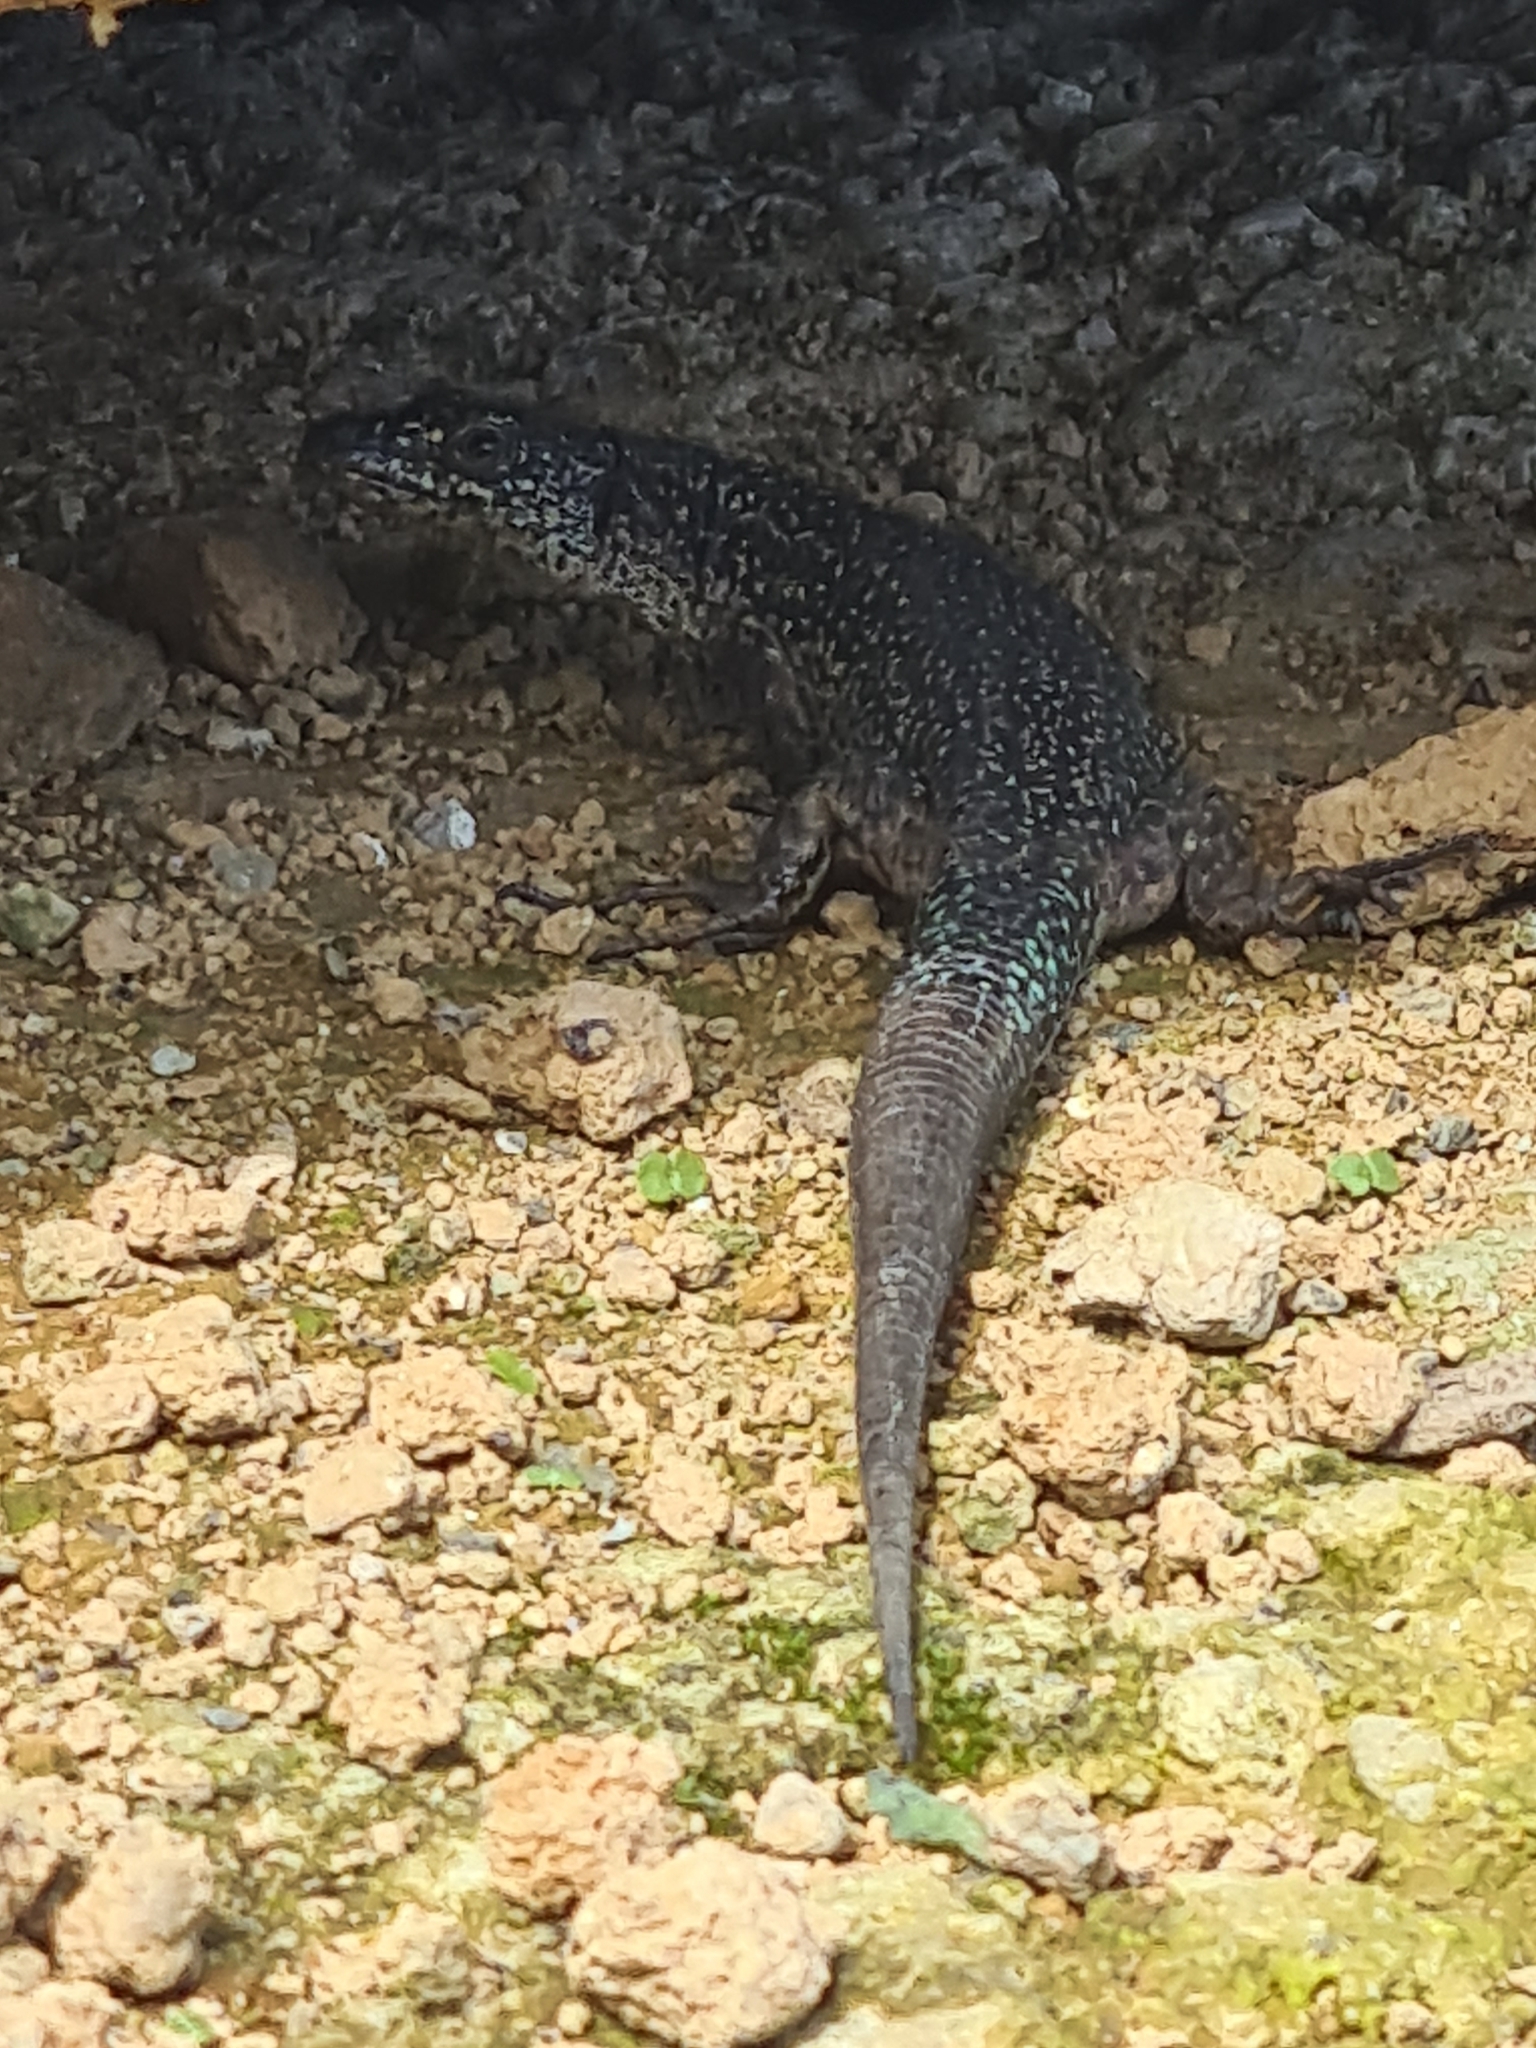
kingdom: Animalia
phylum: Chordata
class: Squamata
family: Lacertidae
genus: Teira
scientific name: Teira dugesii
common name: Madeira lizard
